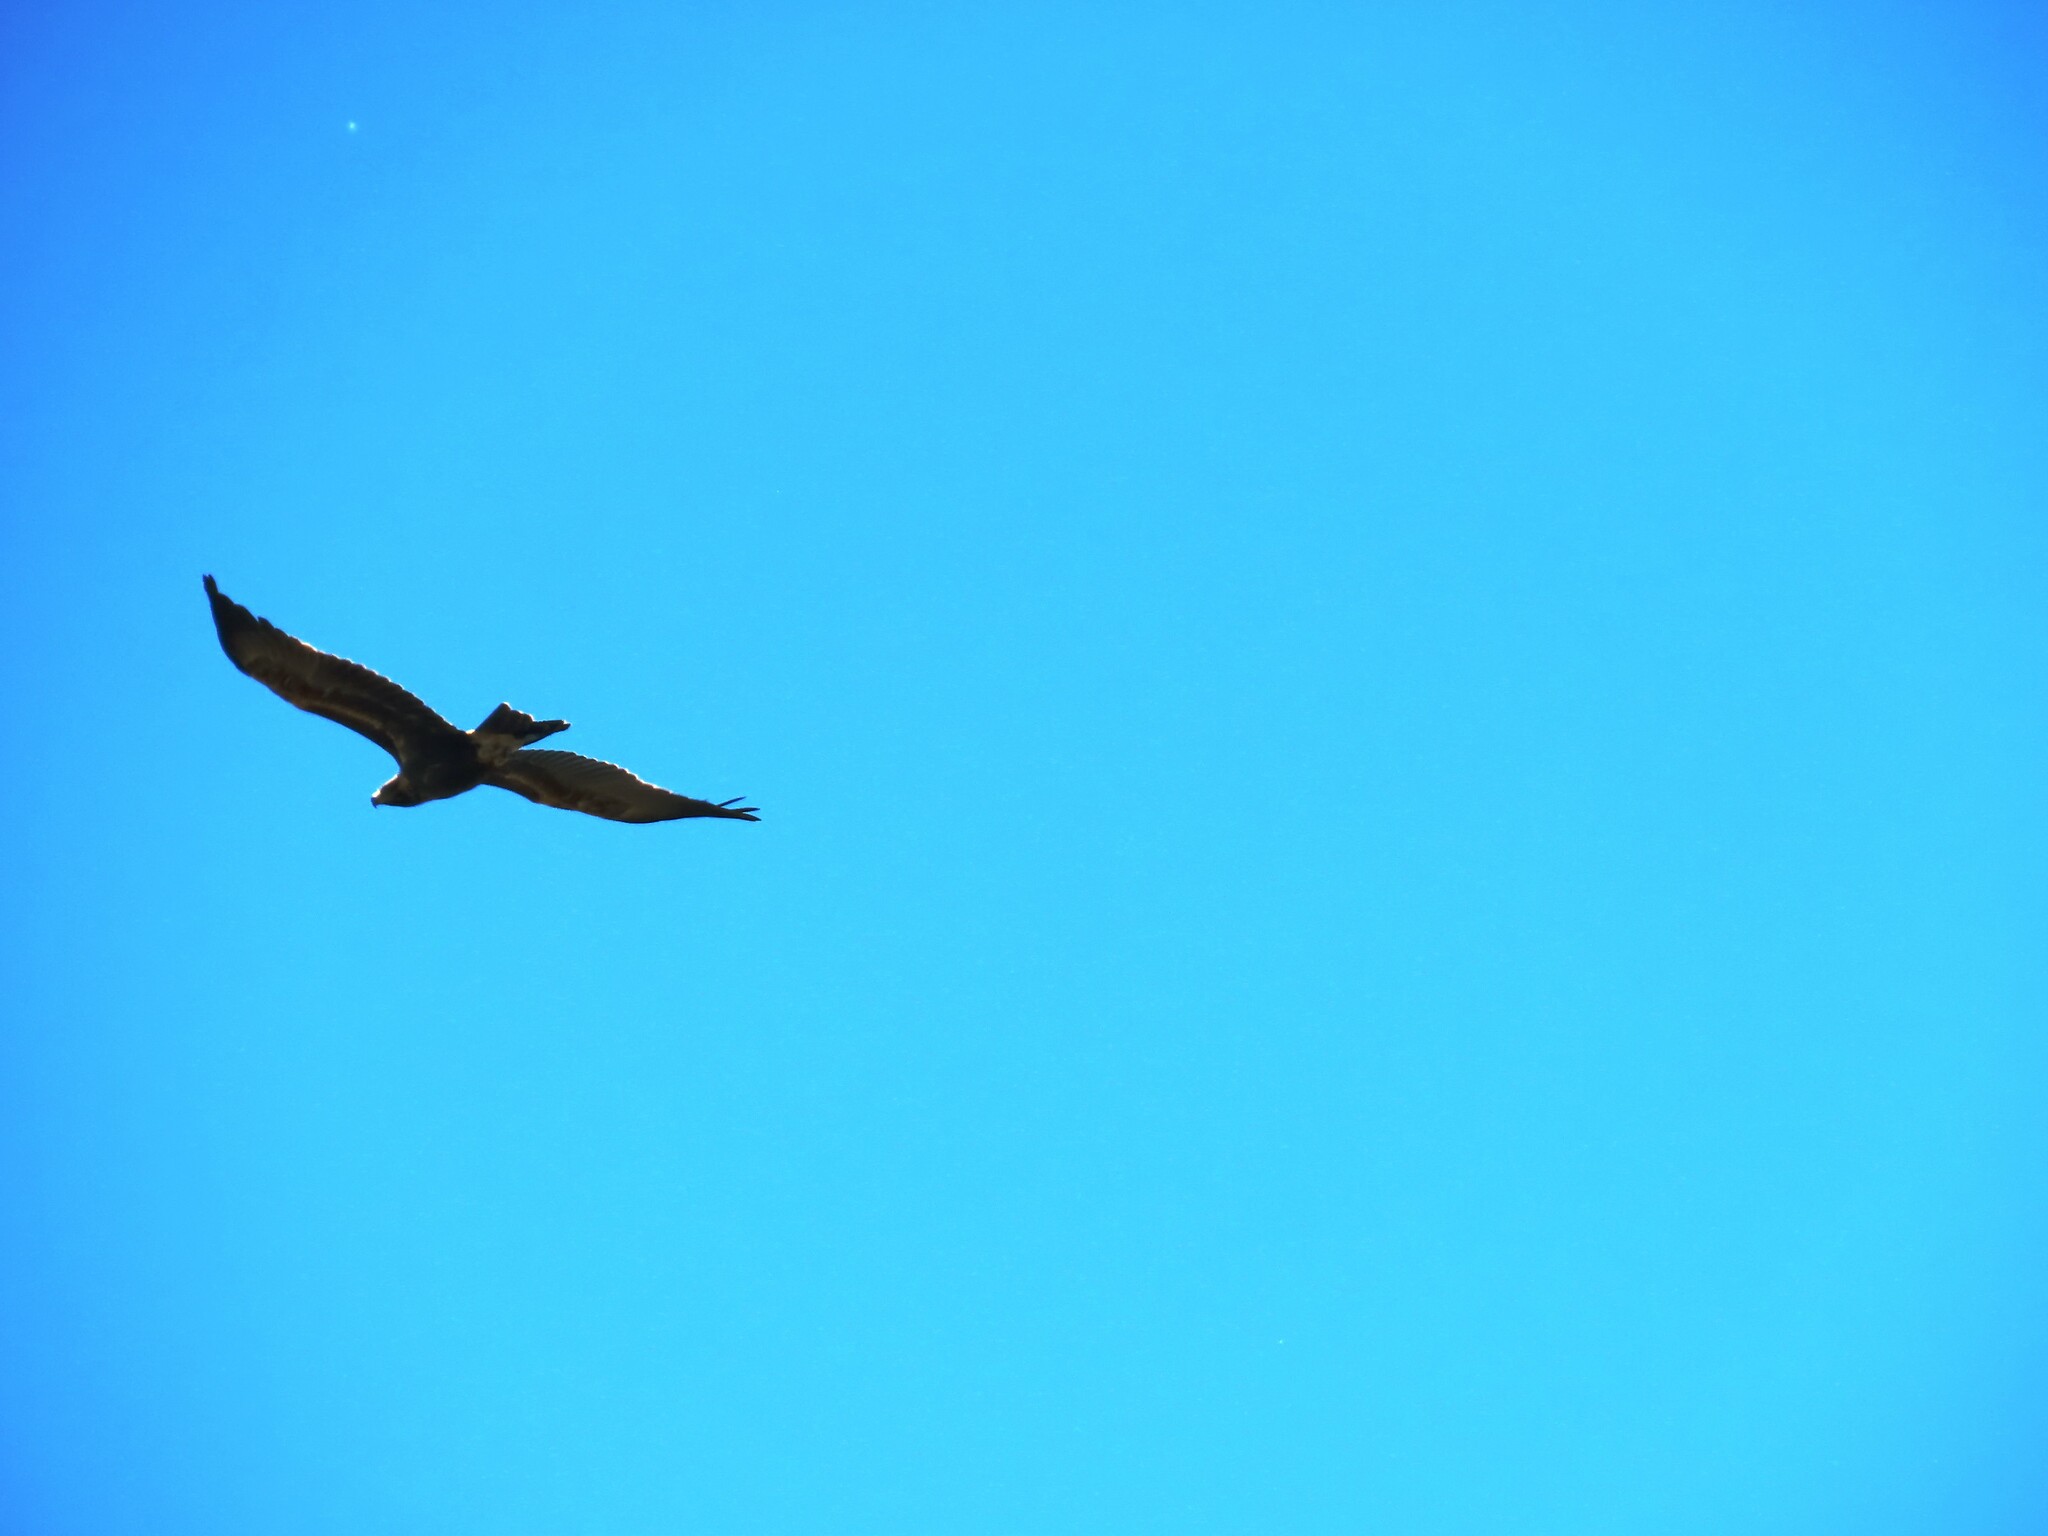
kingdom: Animalia
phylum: Chordata
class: Aves
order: Accipitriformes
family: Accipitridae
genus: Aquila
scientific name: Aquila audax
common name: Wedge-tailed eagle
